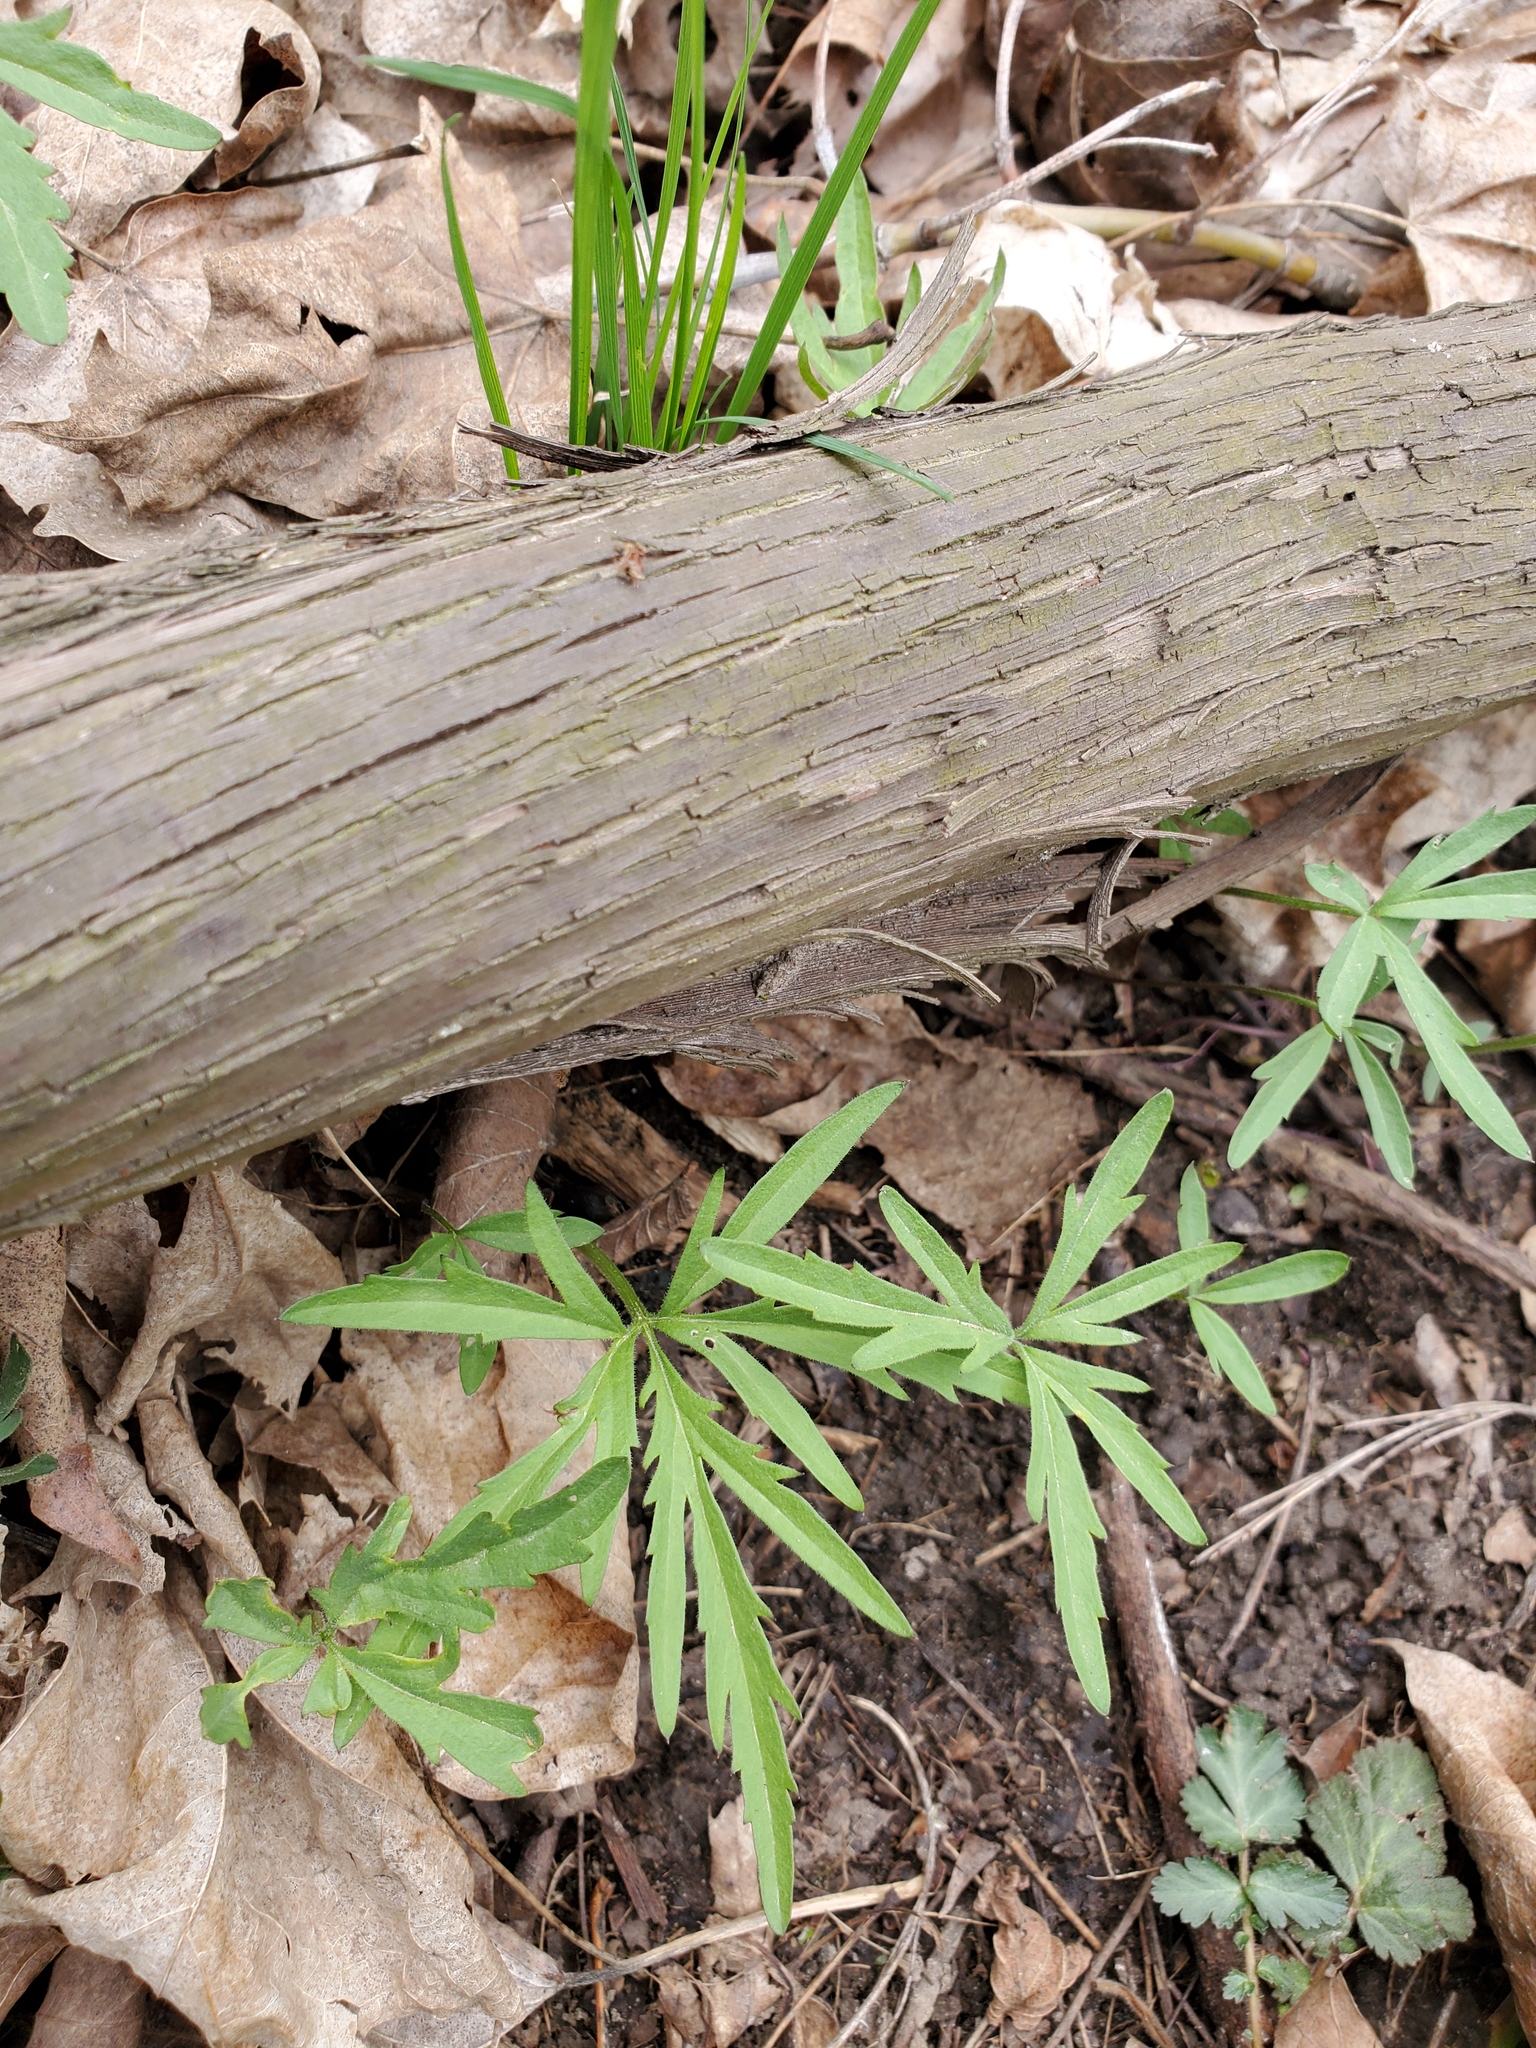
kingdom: Plantae
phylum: Tracheophyta
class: Magnoliopsida
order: Brassicales
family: Brassicaceae
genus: Cardamine
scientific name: Cardamine concatenata
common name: Cut-leaf toothcup
